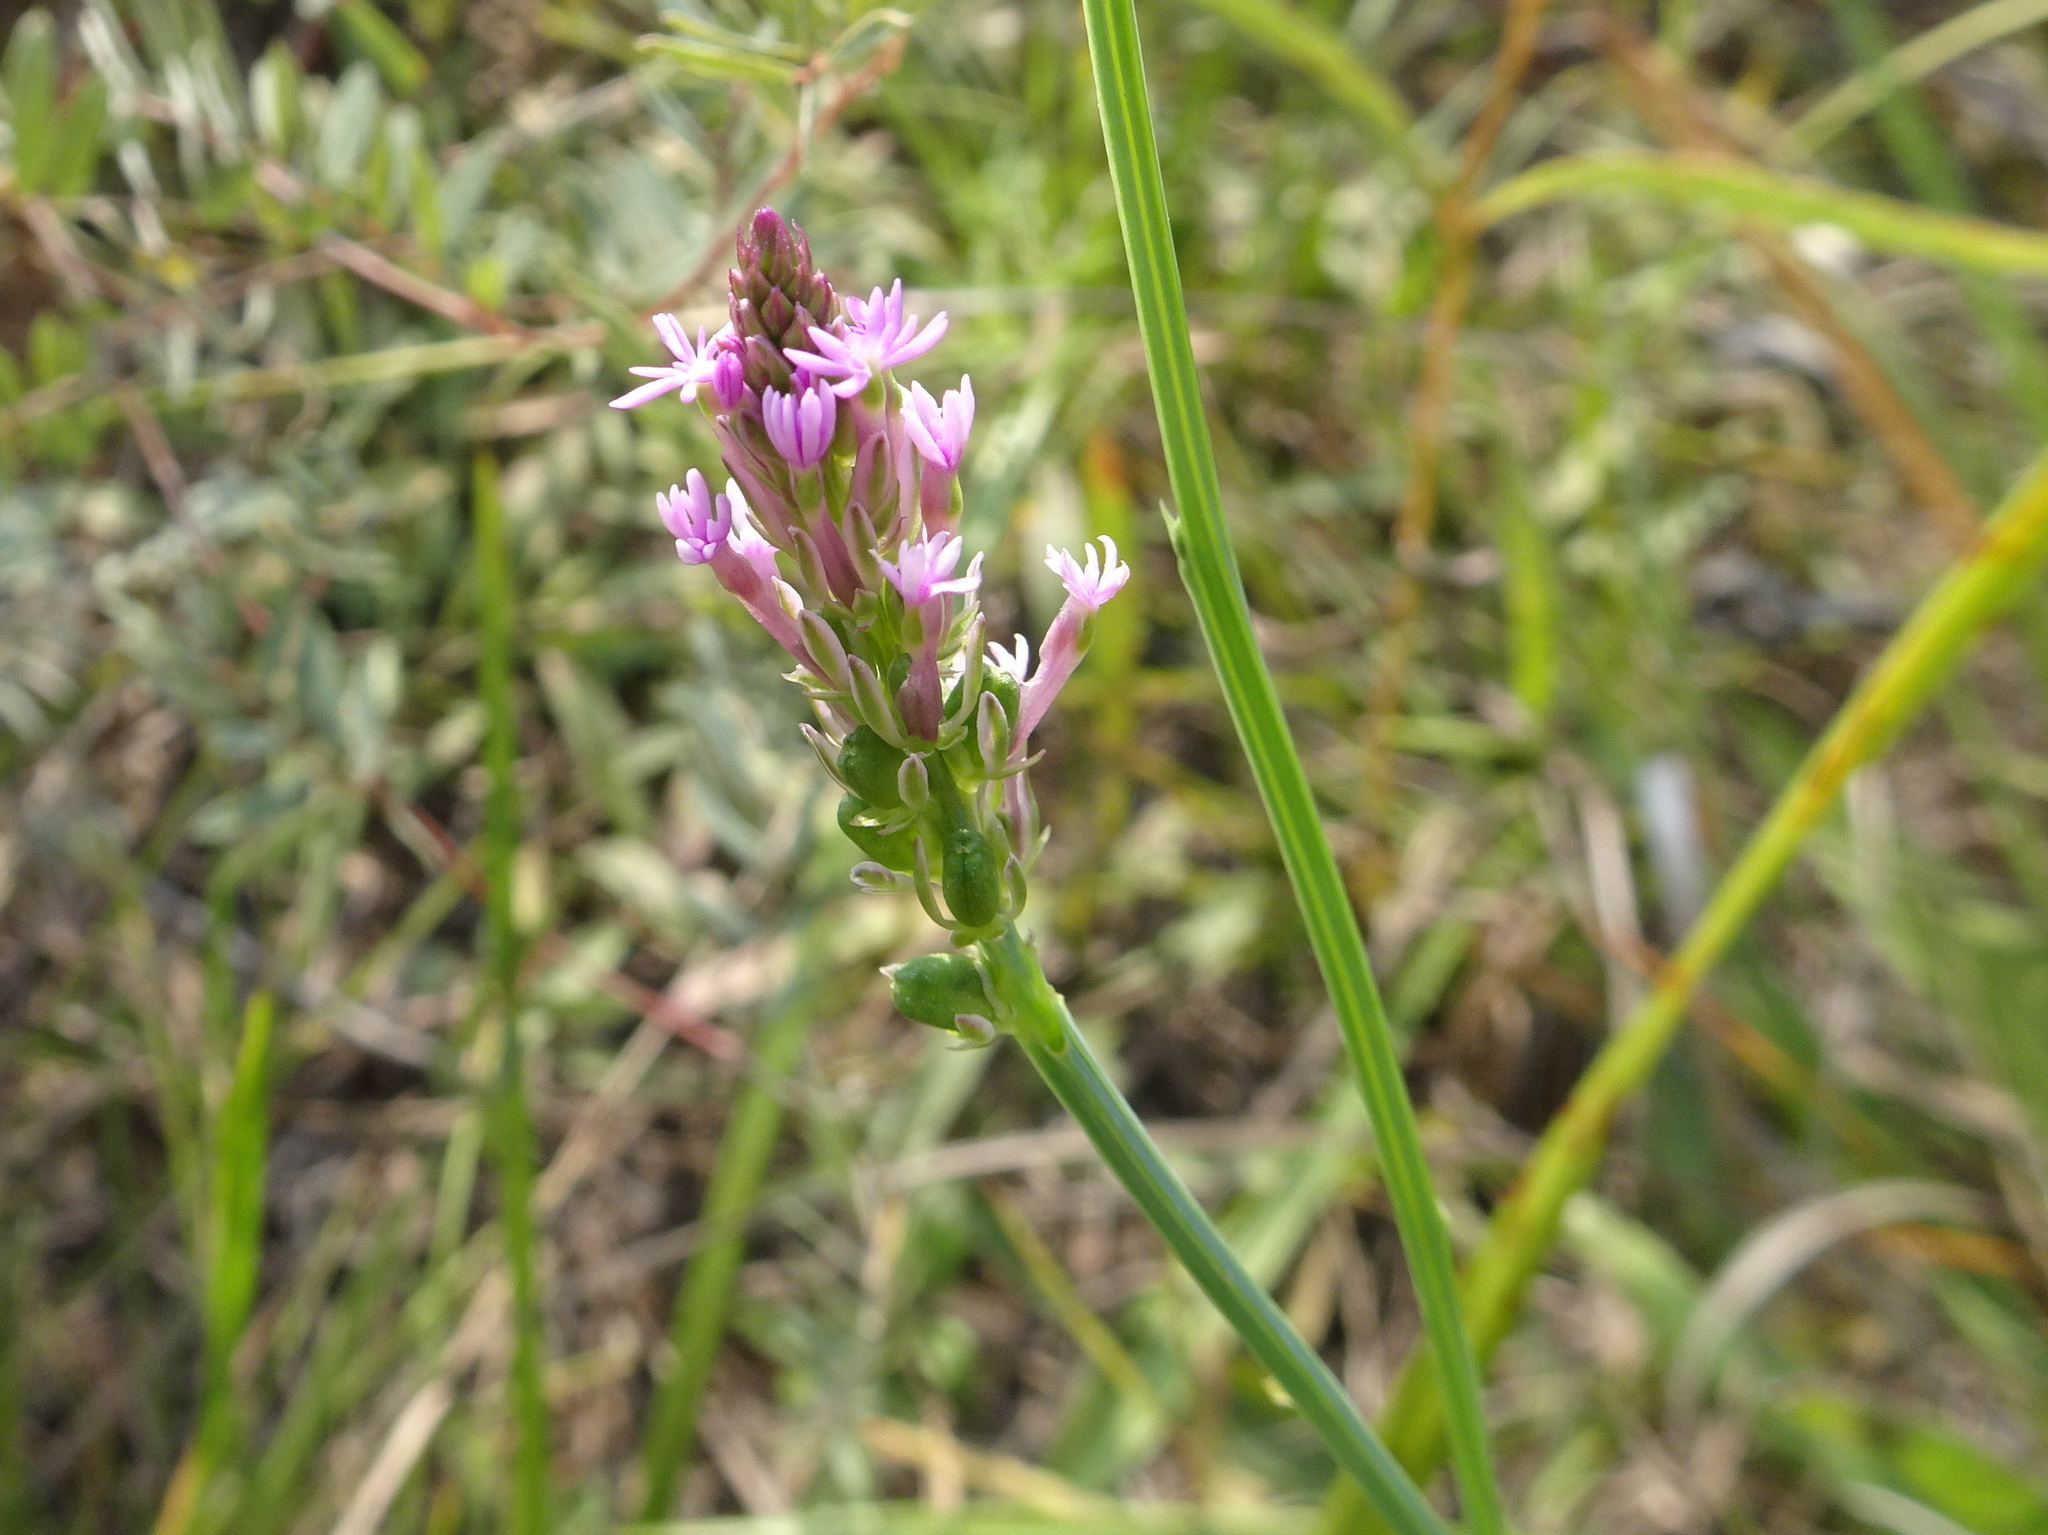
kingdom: Plantae
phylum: Tracheophyta
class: Magnoliopsida
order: Fabales
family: Polygalaceae
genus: Polygala
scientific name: Polygala incarnata
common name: Pink milkwort
